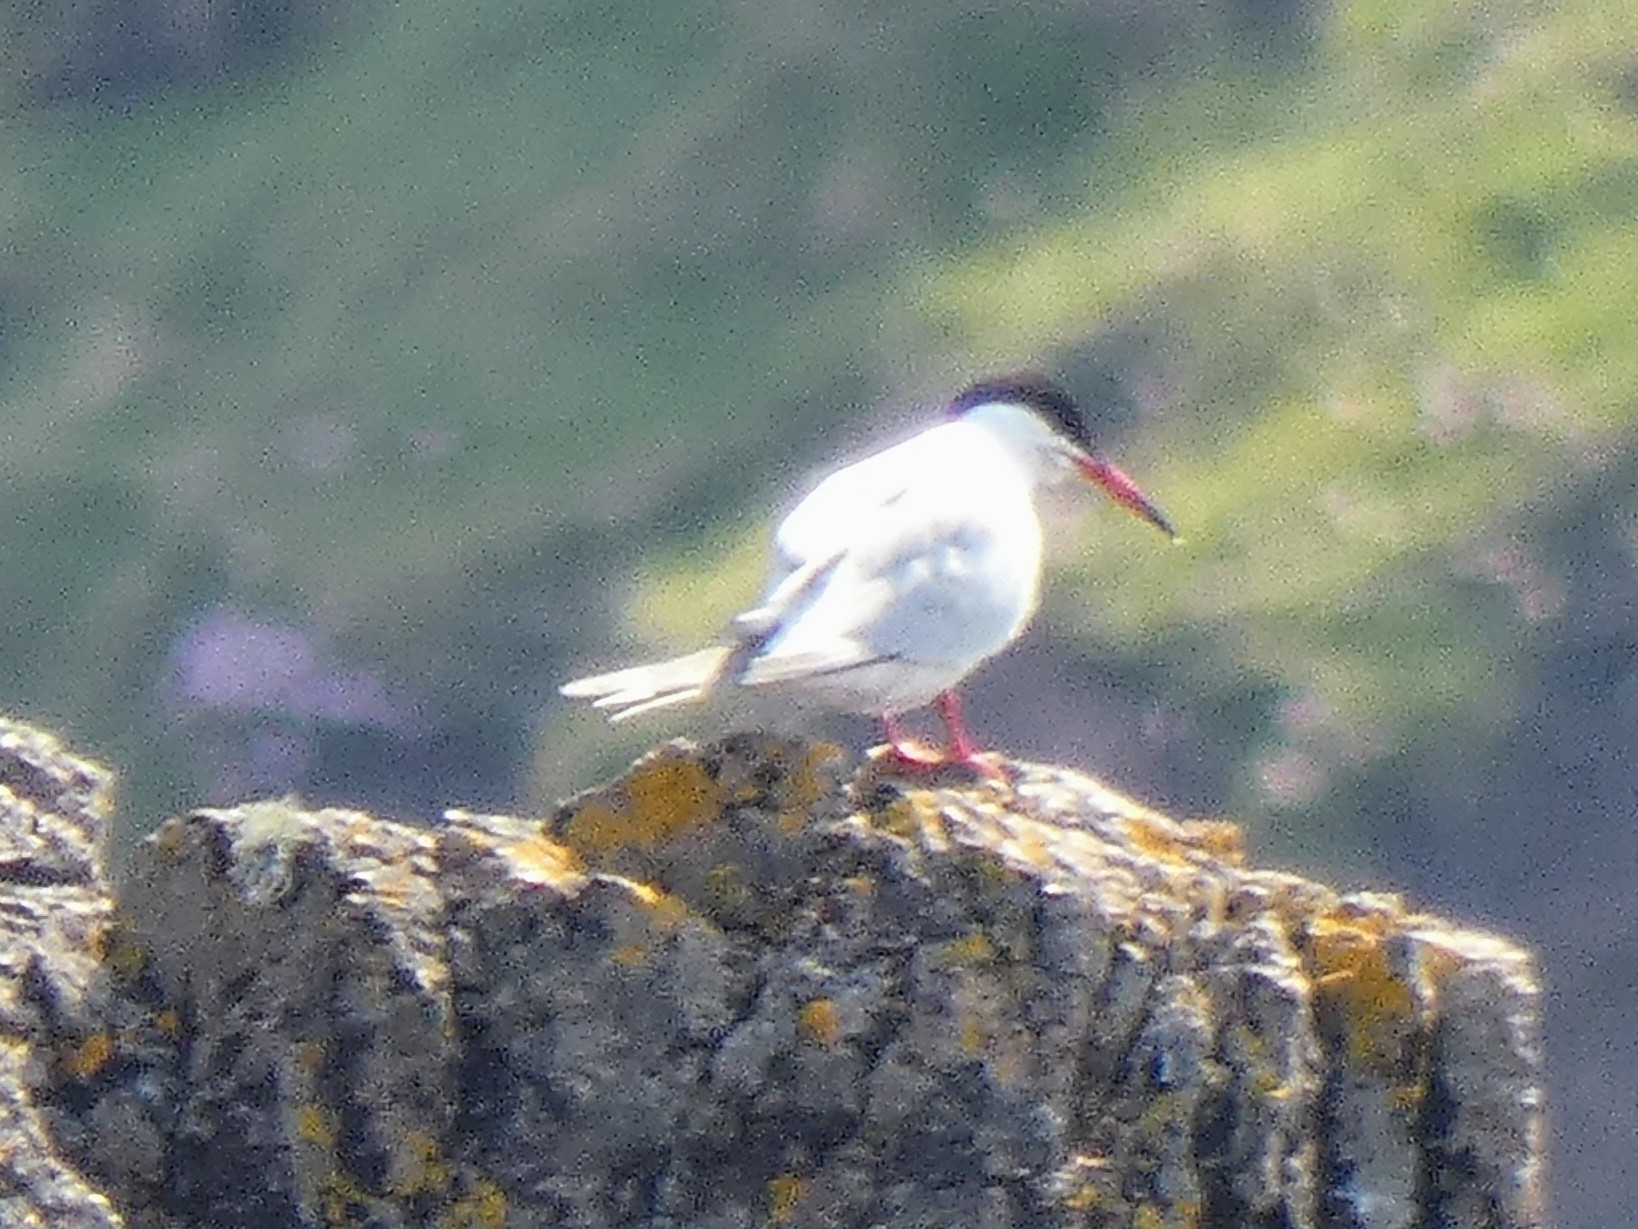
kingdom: Animalia
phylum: Chordata
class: Aves
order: Charadriiformes
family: Laridae
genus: Sterna
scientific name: Sterna hirundo
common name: Common tern
